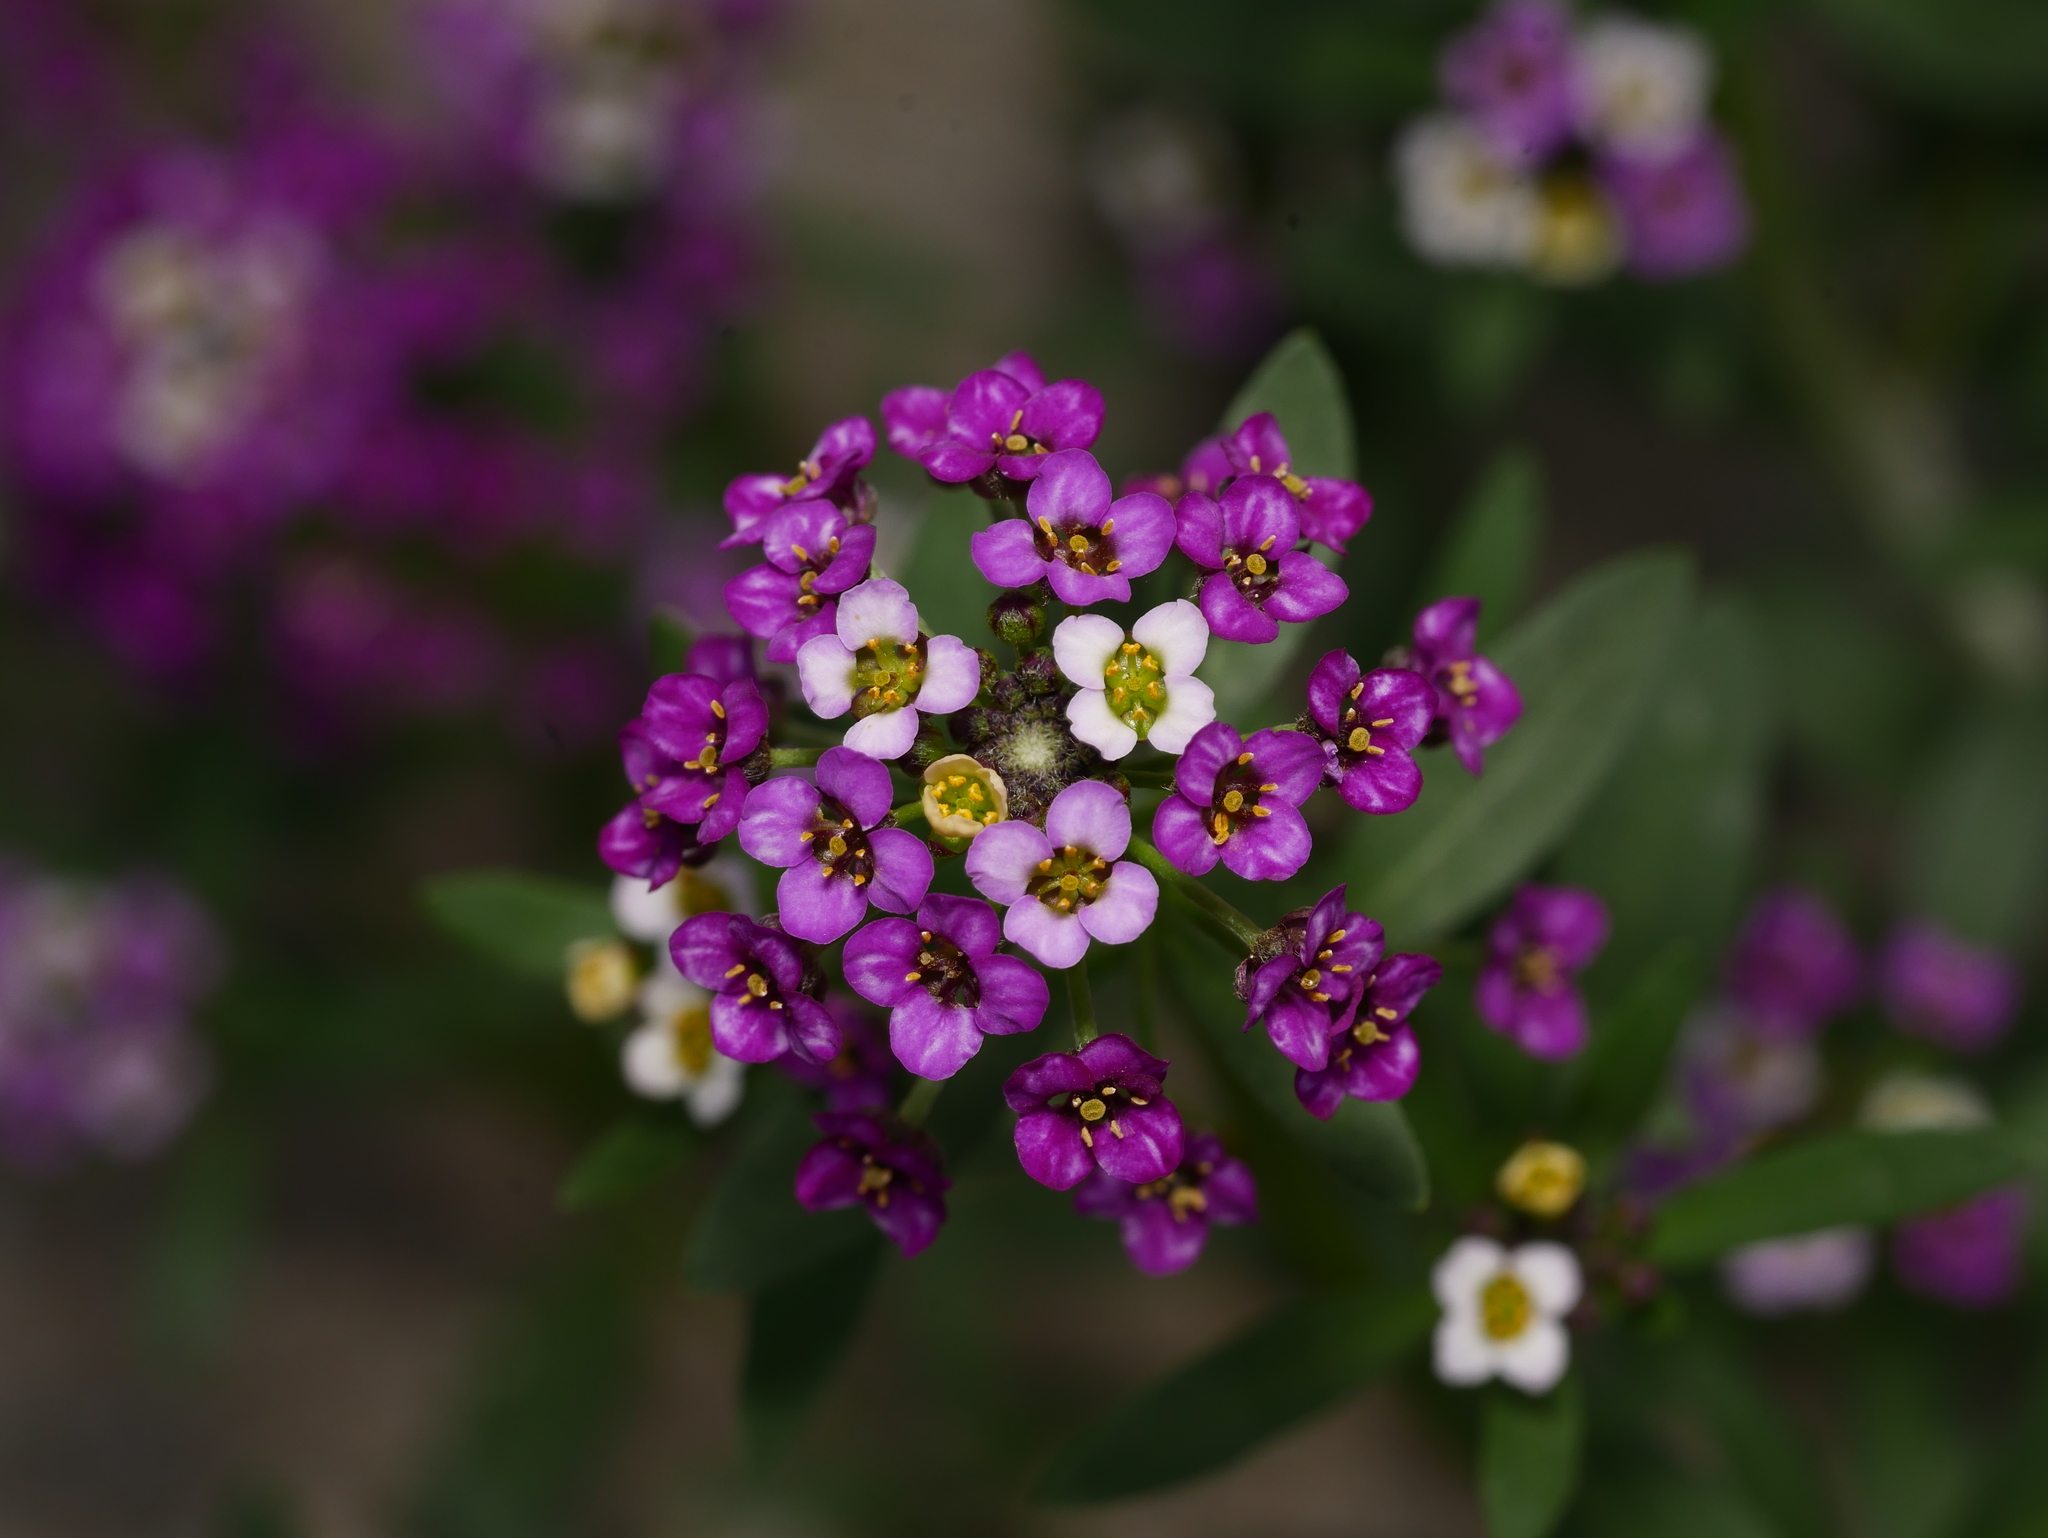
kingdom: Plantae
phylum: Tracheophyta
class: Magnoliopsida
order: Brassicales
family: Brassicaceae
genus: Lobularia
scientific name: Lobularia maritima
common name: Sweet alison
